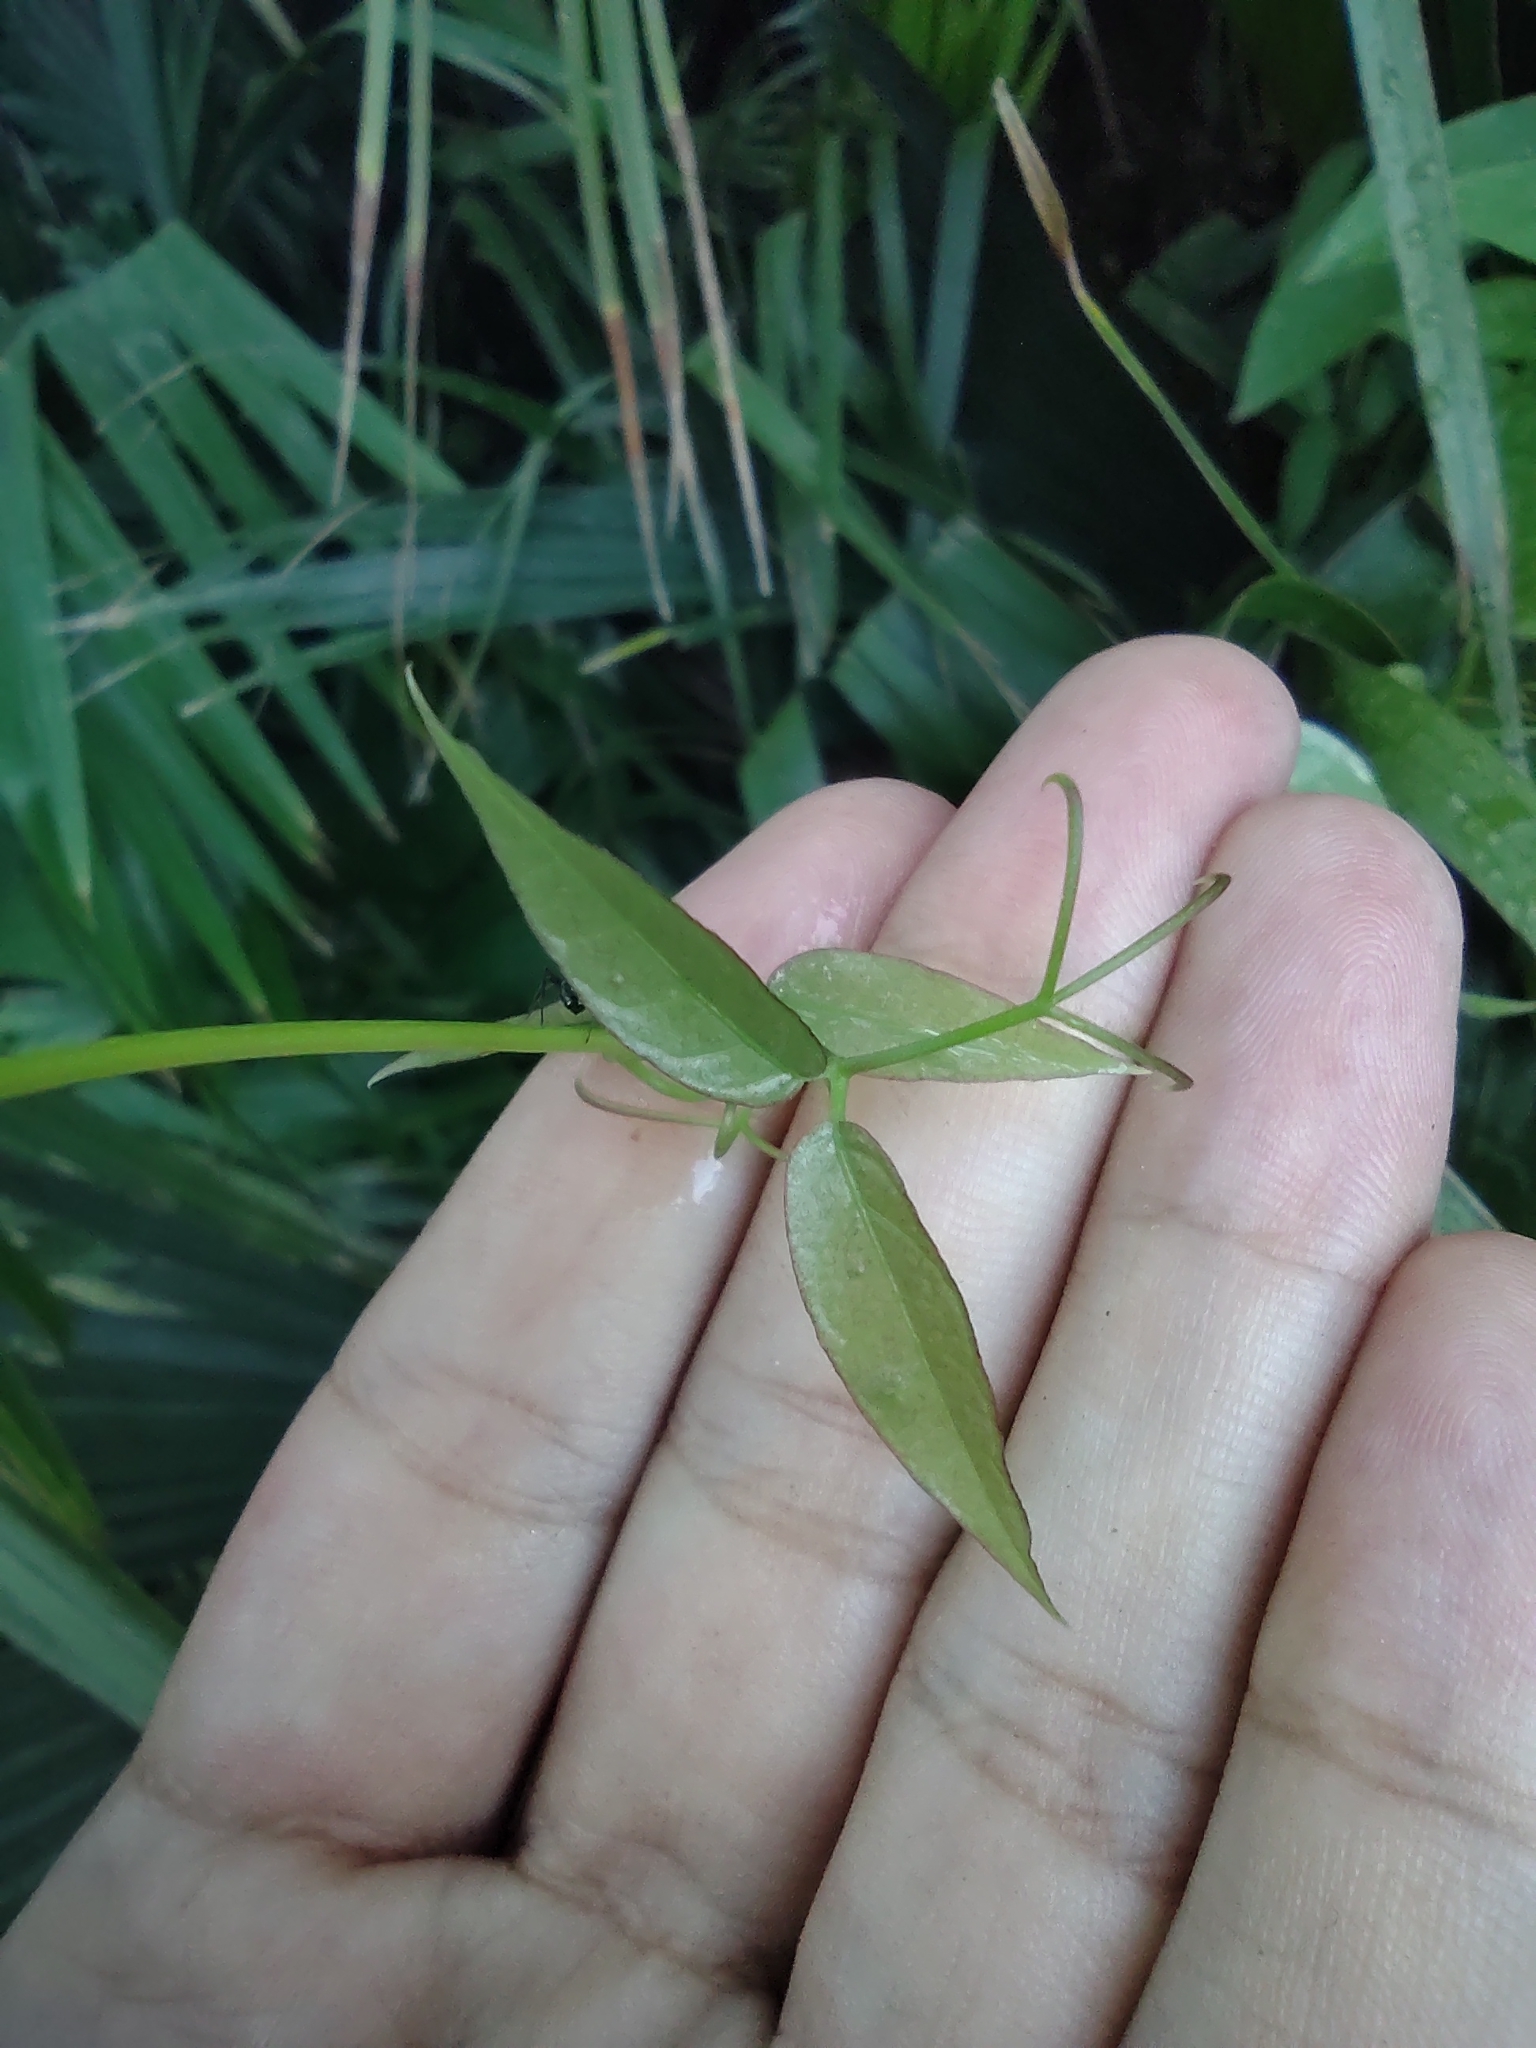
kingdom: Plantae
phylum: Tracheophyta
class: Magnoliopsida
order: Lamiales
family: Bignoniaceae
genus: Dolichandra
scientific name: Dolichandra unguis-cati
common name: Catclaw vine
